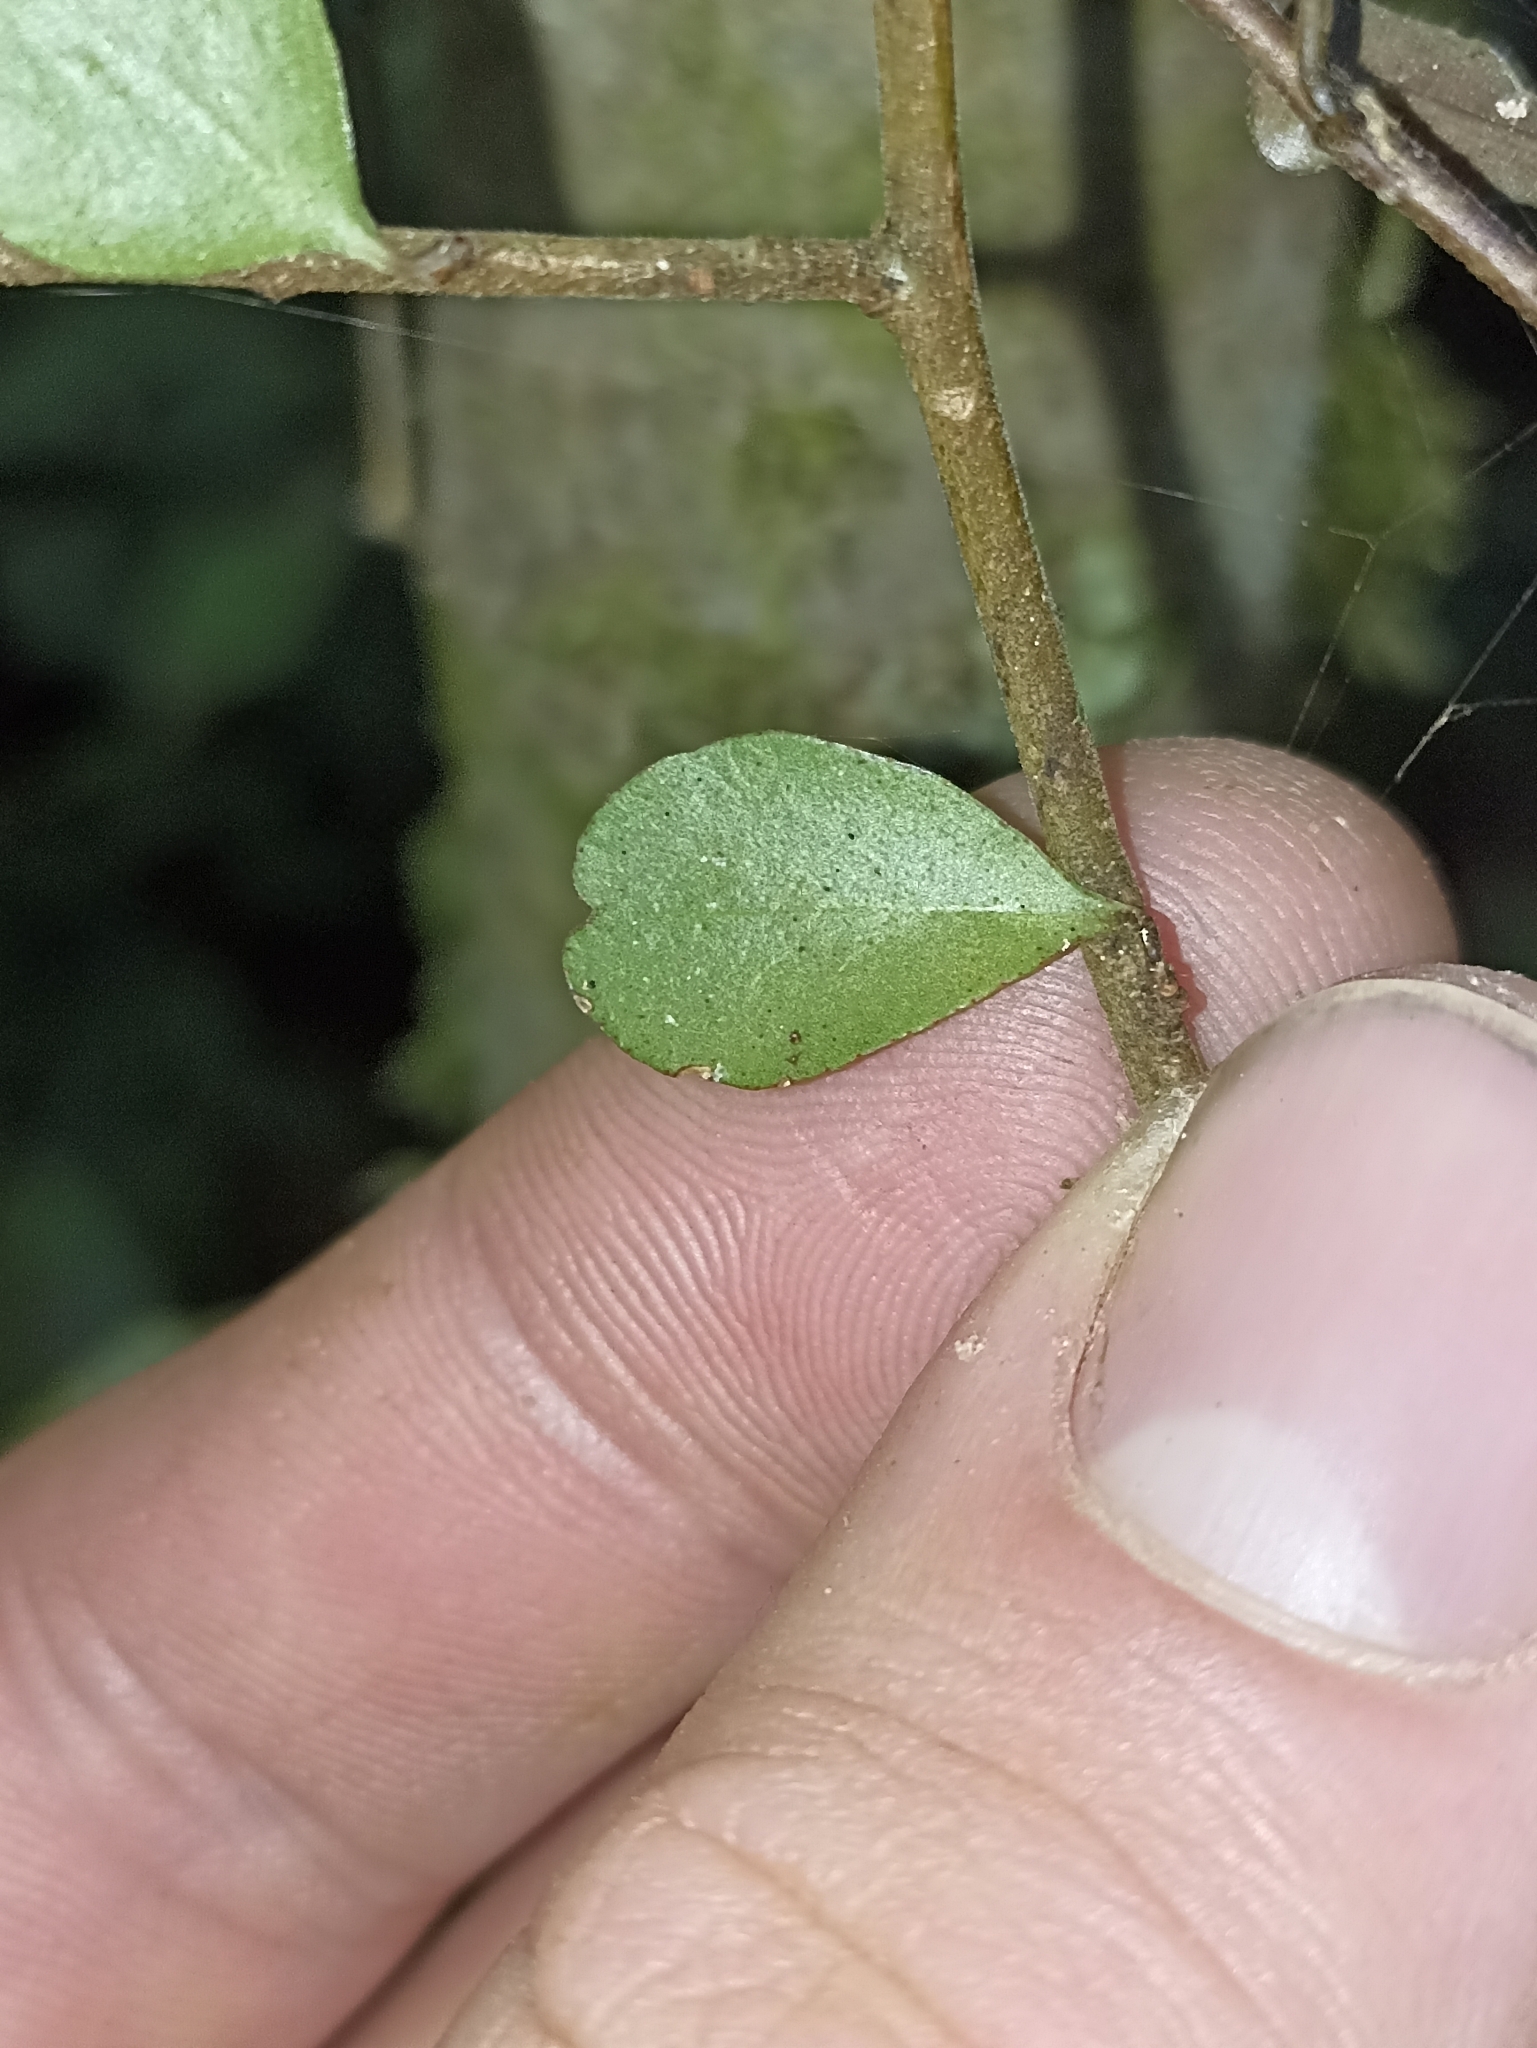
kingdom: Plantae
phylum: Tracheophyta
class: Magnoliopsida
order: Ericales
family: Primulaceae
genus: Myrsine
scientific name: Myrsine divaricata
